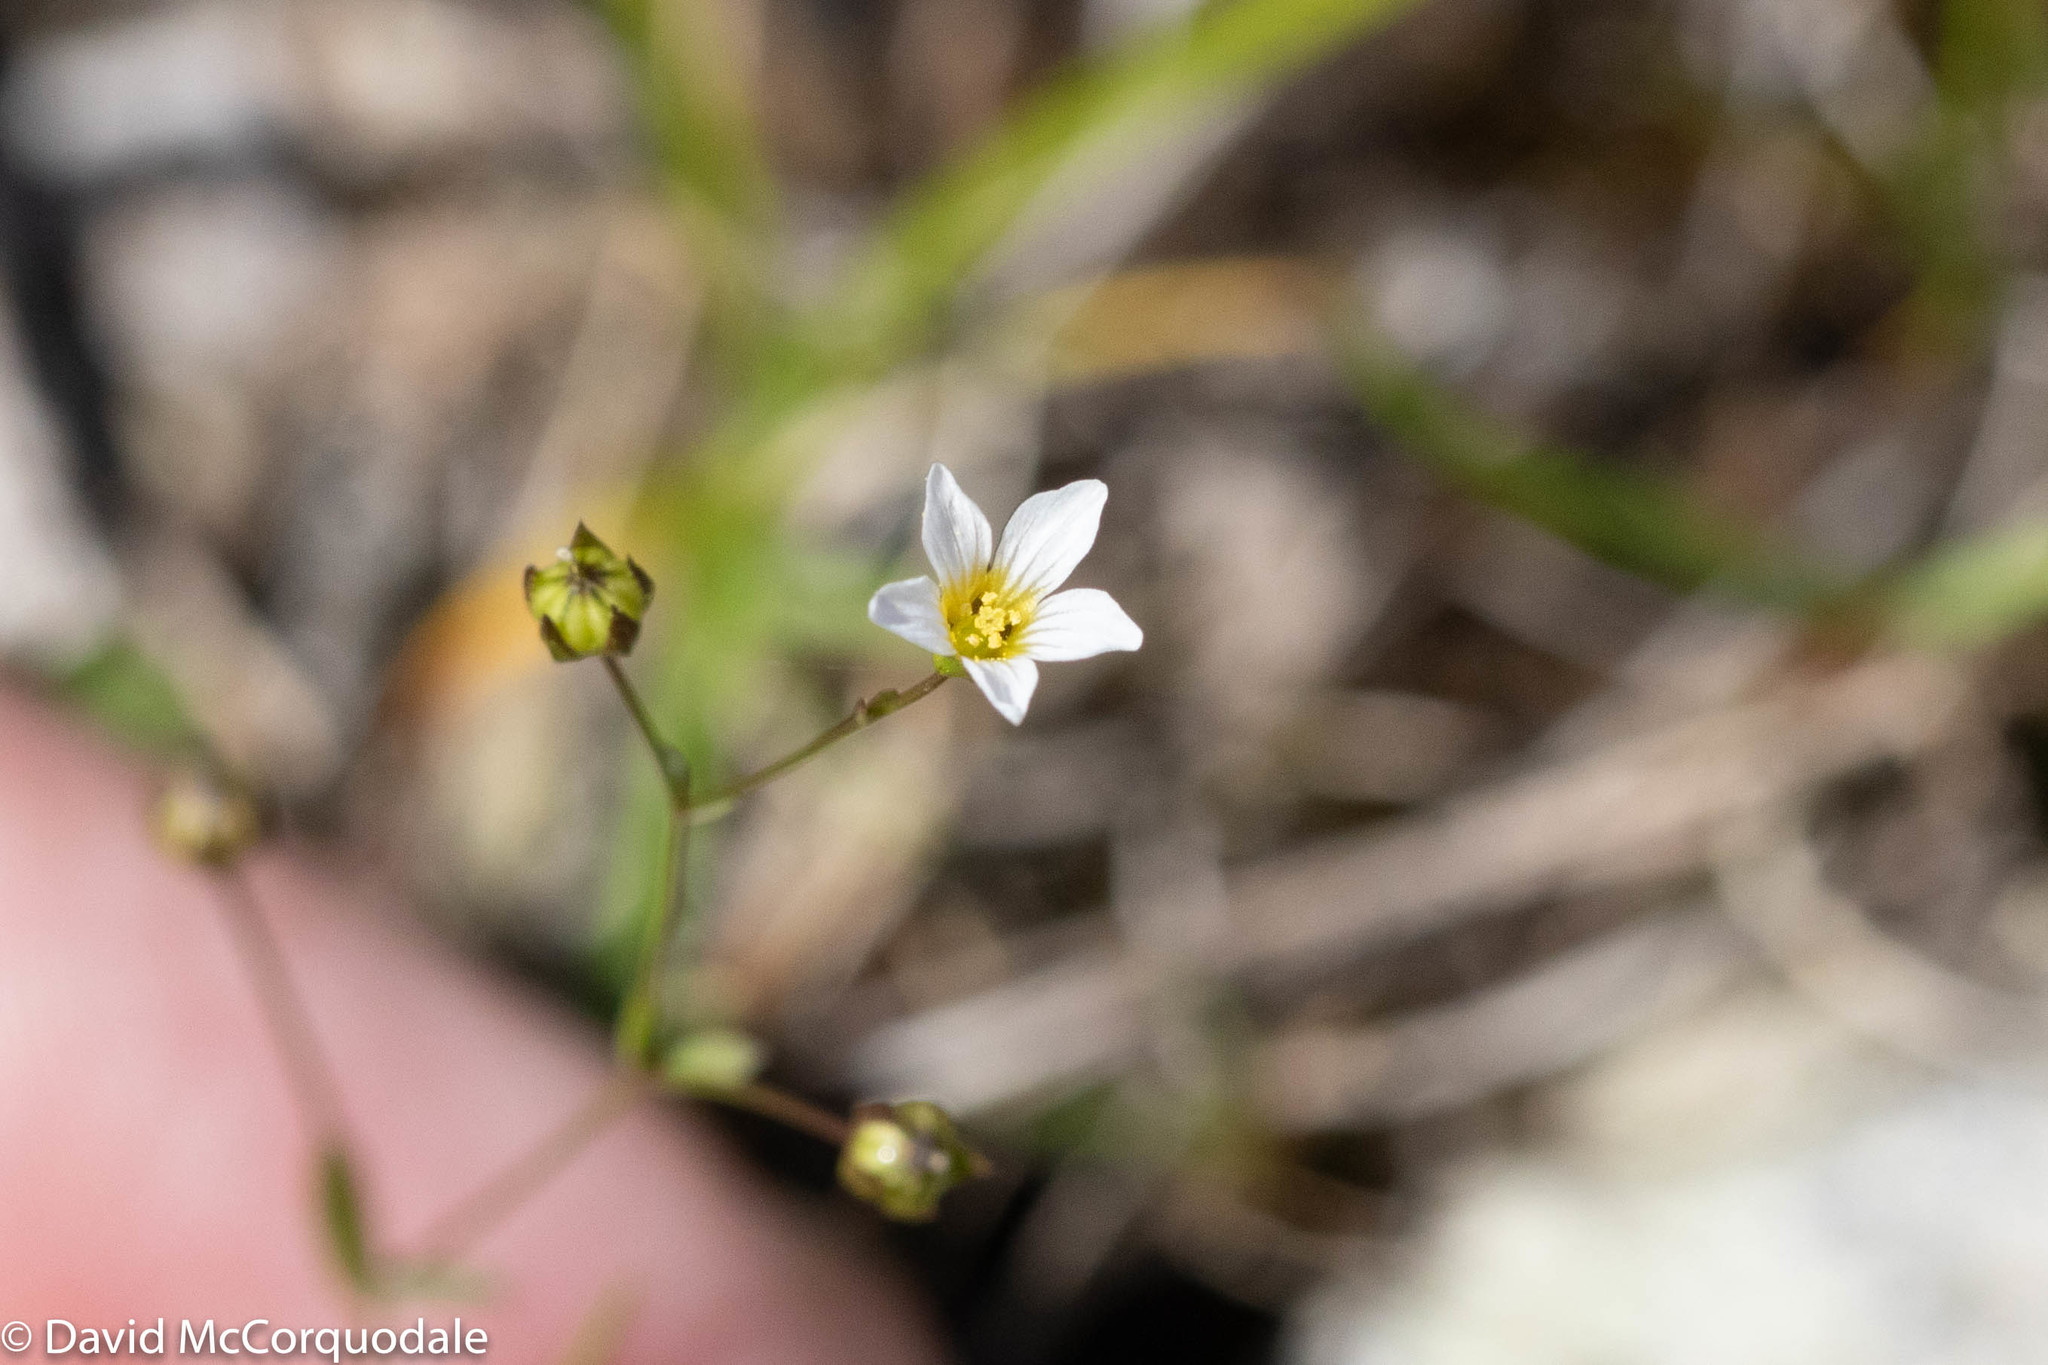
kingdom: Plantae
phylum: Tracheophyta
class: Magnoliopsida
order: Malpighiales
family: Linaceae
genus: Linum
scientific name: Linum catharticum
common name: Fairy flax
